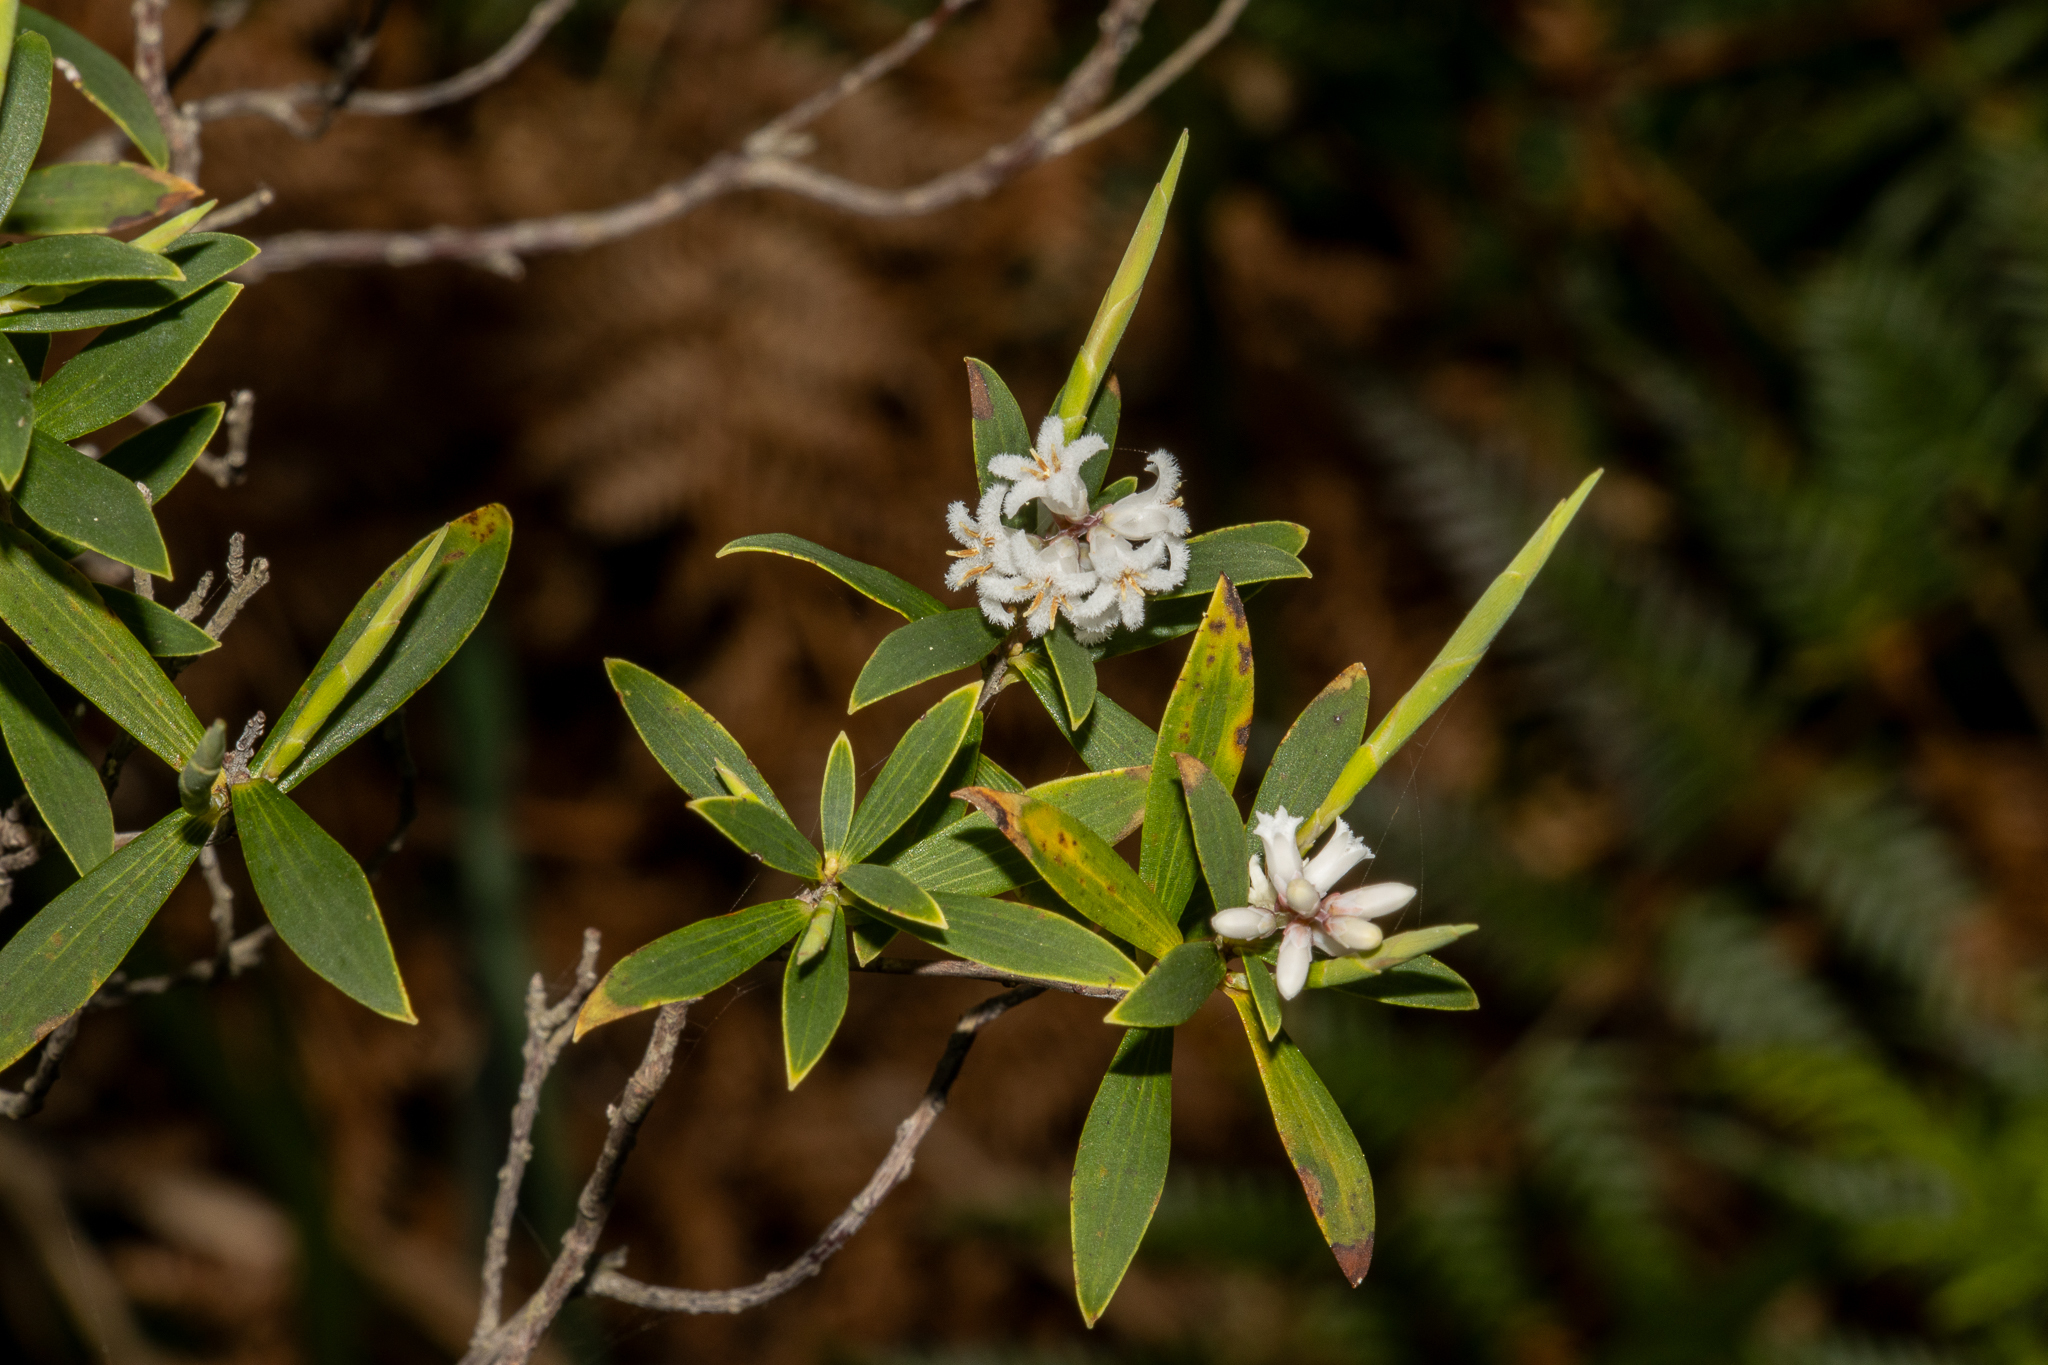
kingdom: Plantae
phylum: Tracheophyta
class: Magnoliopsida
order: Ericales
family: Ericaceae
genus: Leptecophylla
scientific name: Leptecophylla parvifolia
